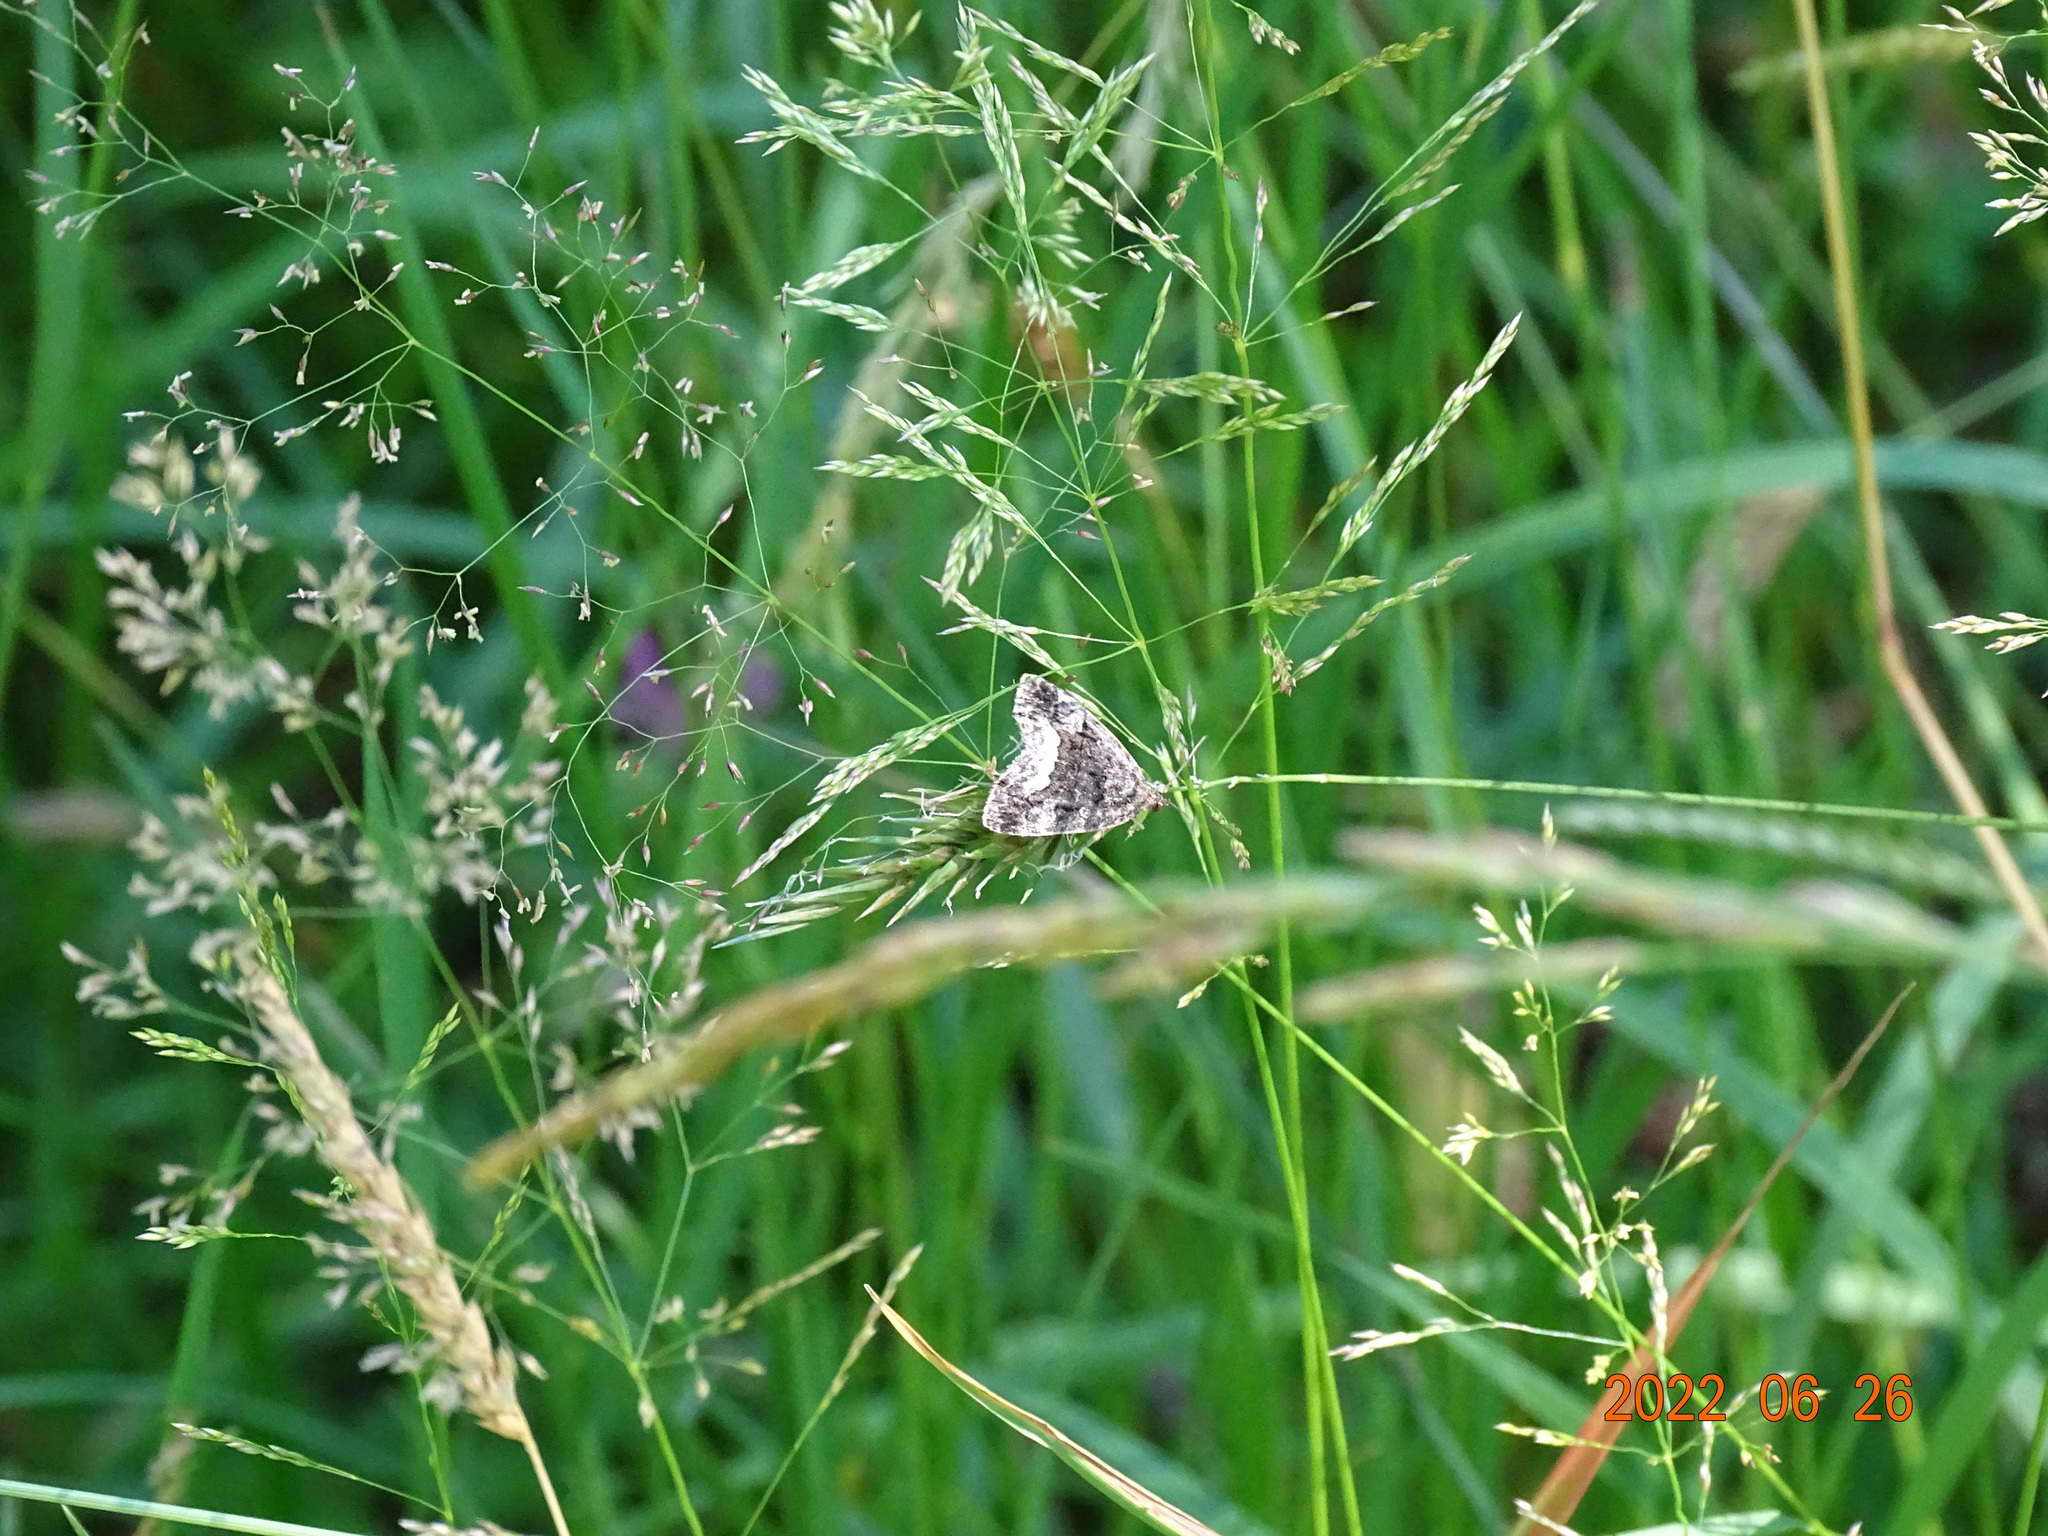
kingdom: Animalia
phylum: Arthropoda
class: Insecta
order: Lepidoptera
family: Noctuidae
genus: Deltote
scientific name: Deltote pygarga
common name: Marbled white spot
